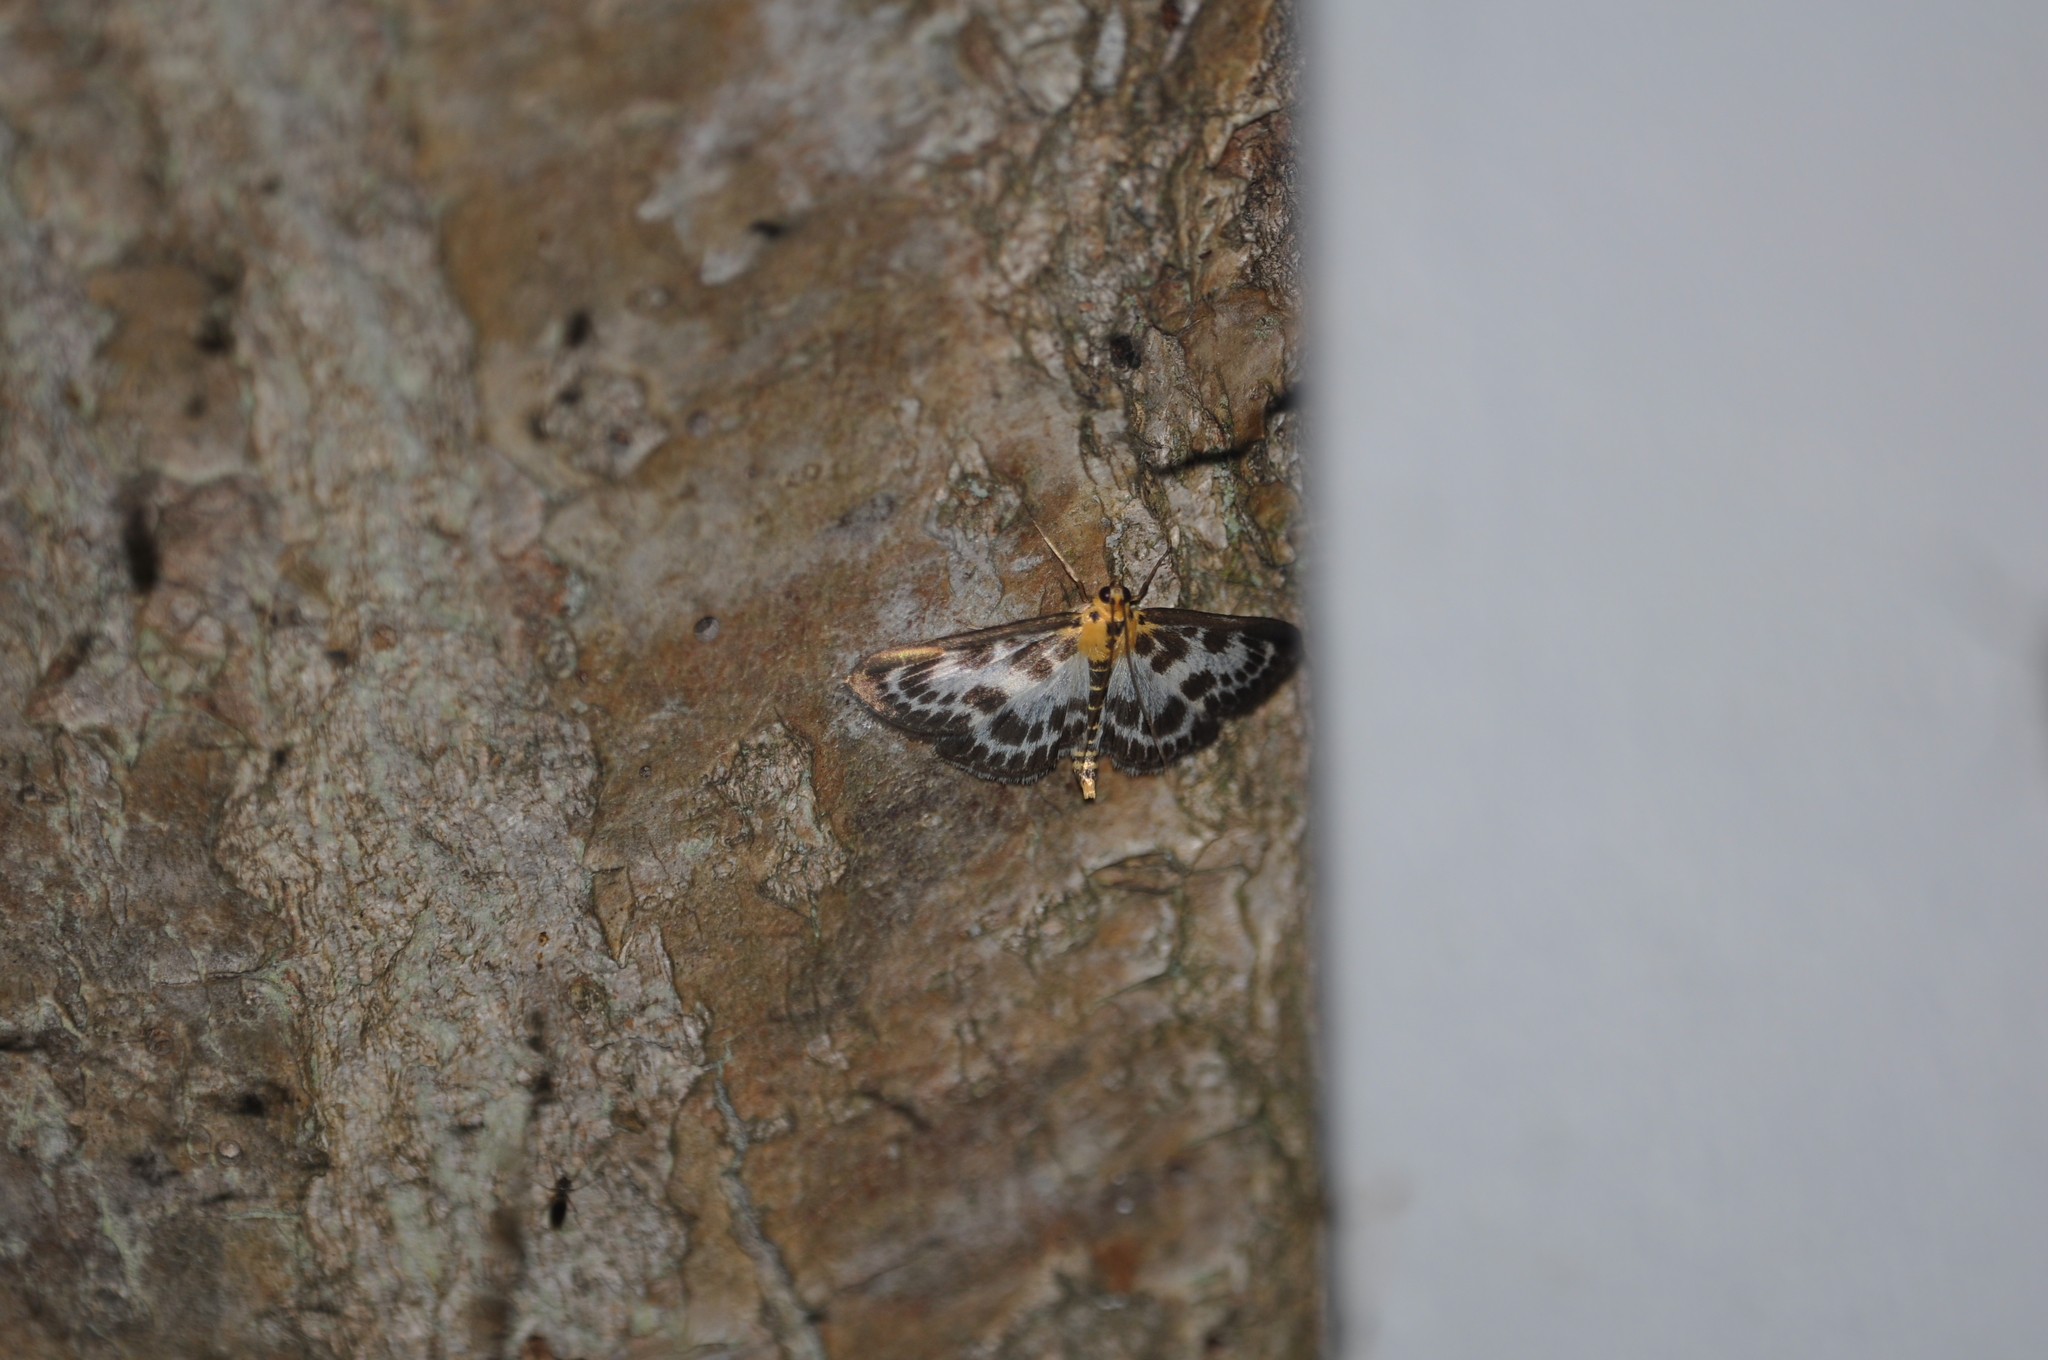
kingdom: Animalia
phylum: Arthropoda
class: Insecta
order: Lepidoptera
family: Crambidae
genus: Anania
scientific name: Anania hortulata
